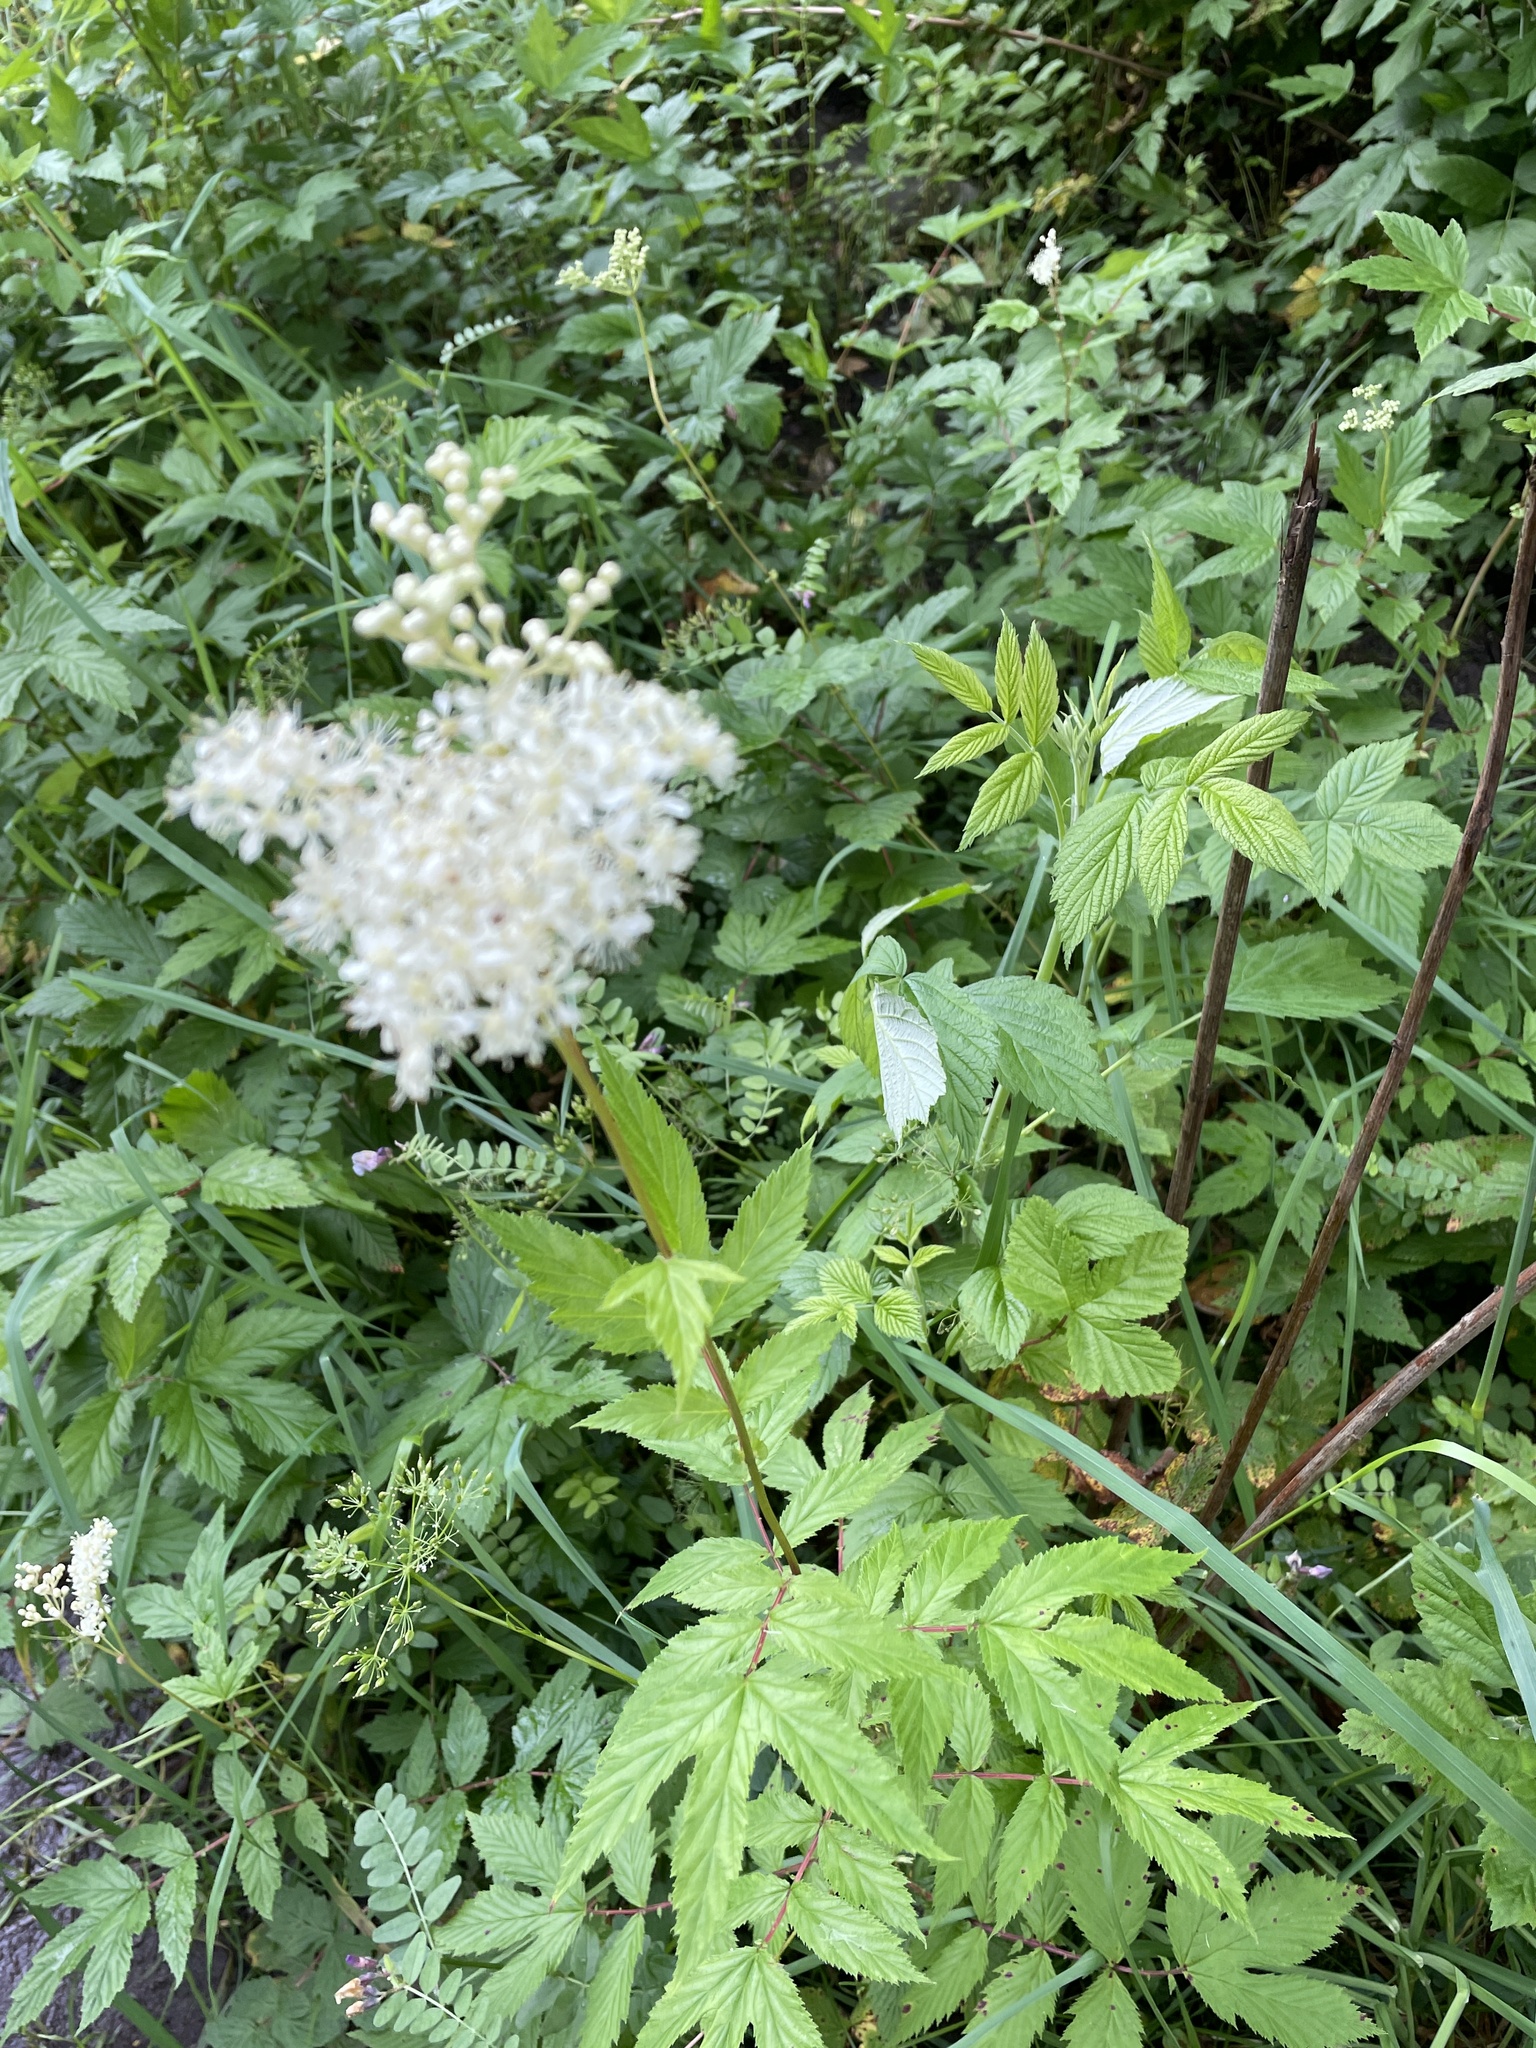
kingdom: Plantae
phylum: Tracheophyta
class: Magnoliopsida
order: Rosales
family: Rosaceae
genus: Filipendula
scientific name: Filipendula ulmaria
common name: Meadowsweet
